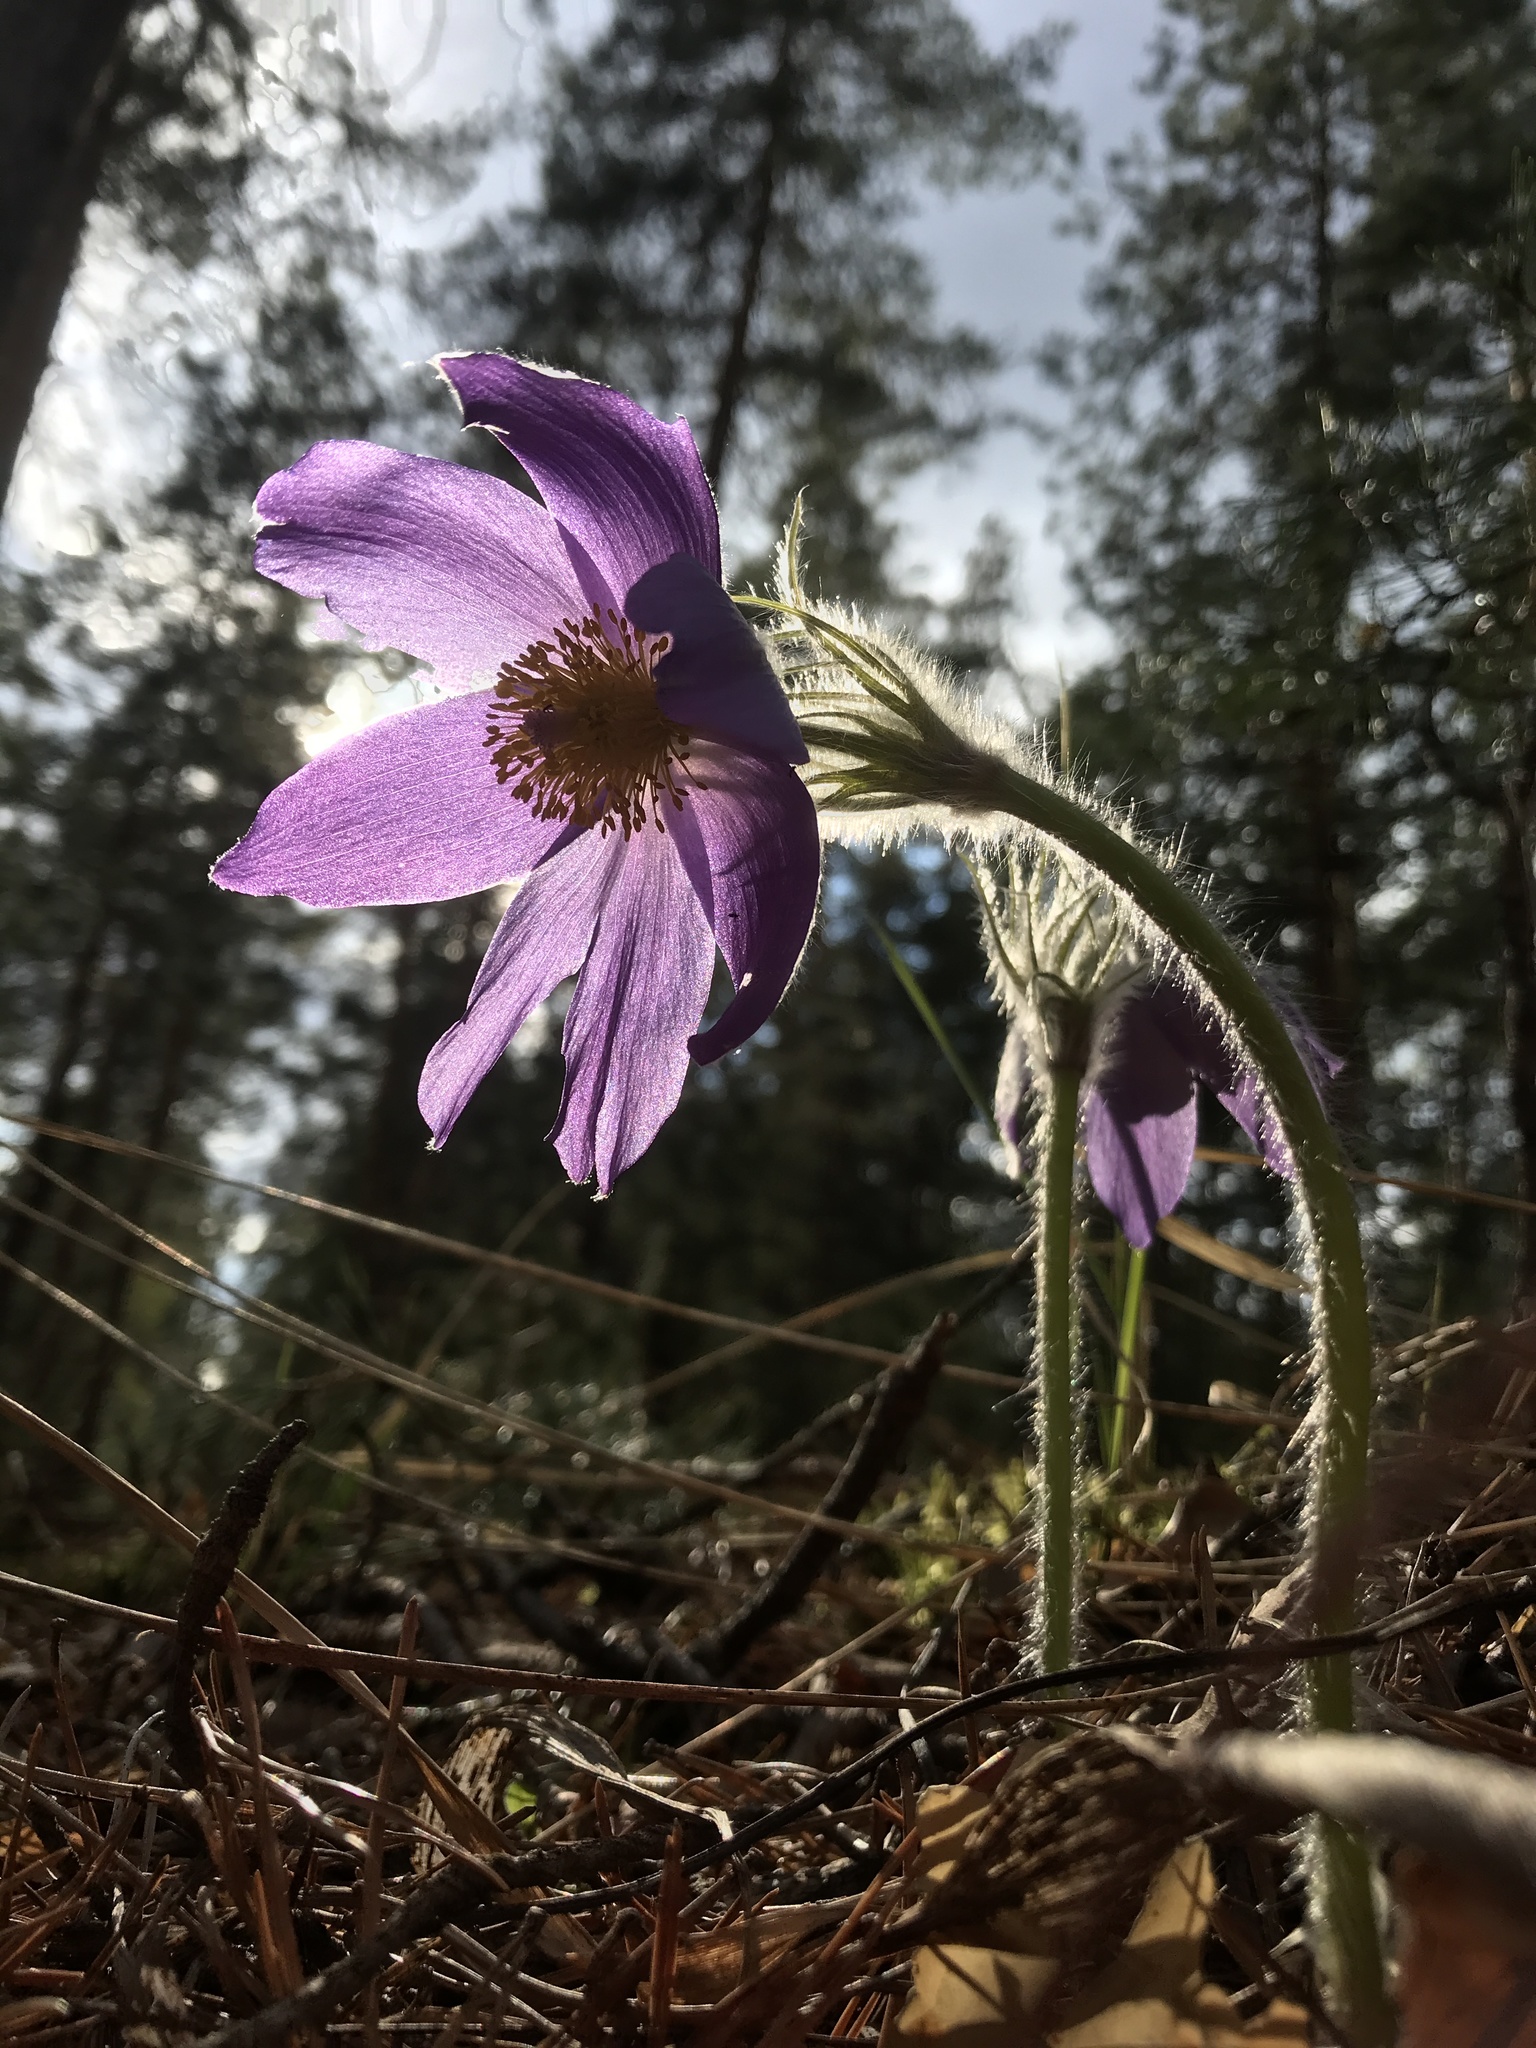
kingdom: Plantae
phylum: Tracheophyta
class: Magnoliopsida
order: Ranunculales
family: Ranunculaceae
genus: Pulsatilla
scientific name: Pulsatilla patens
